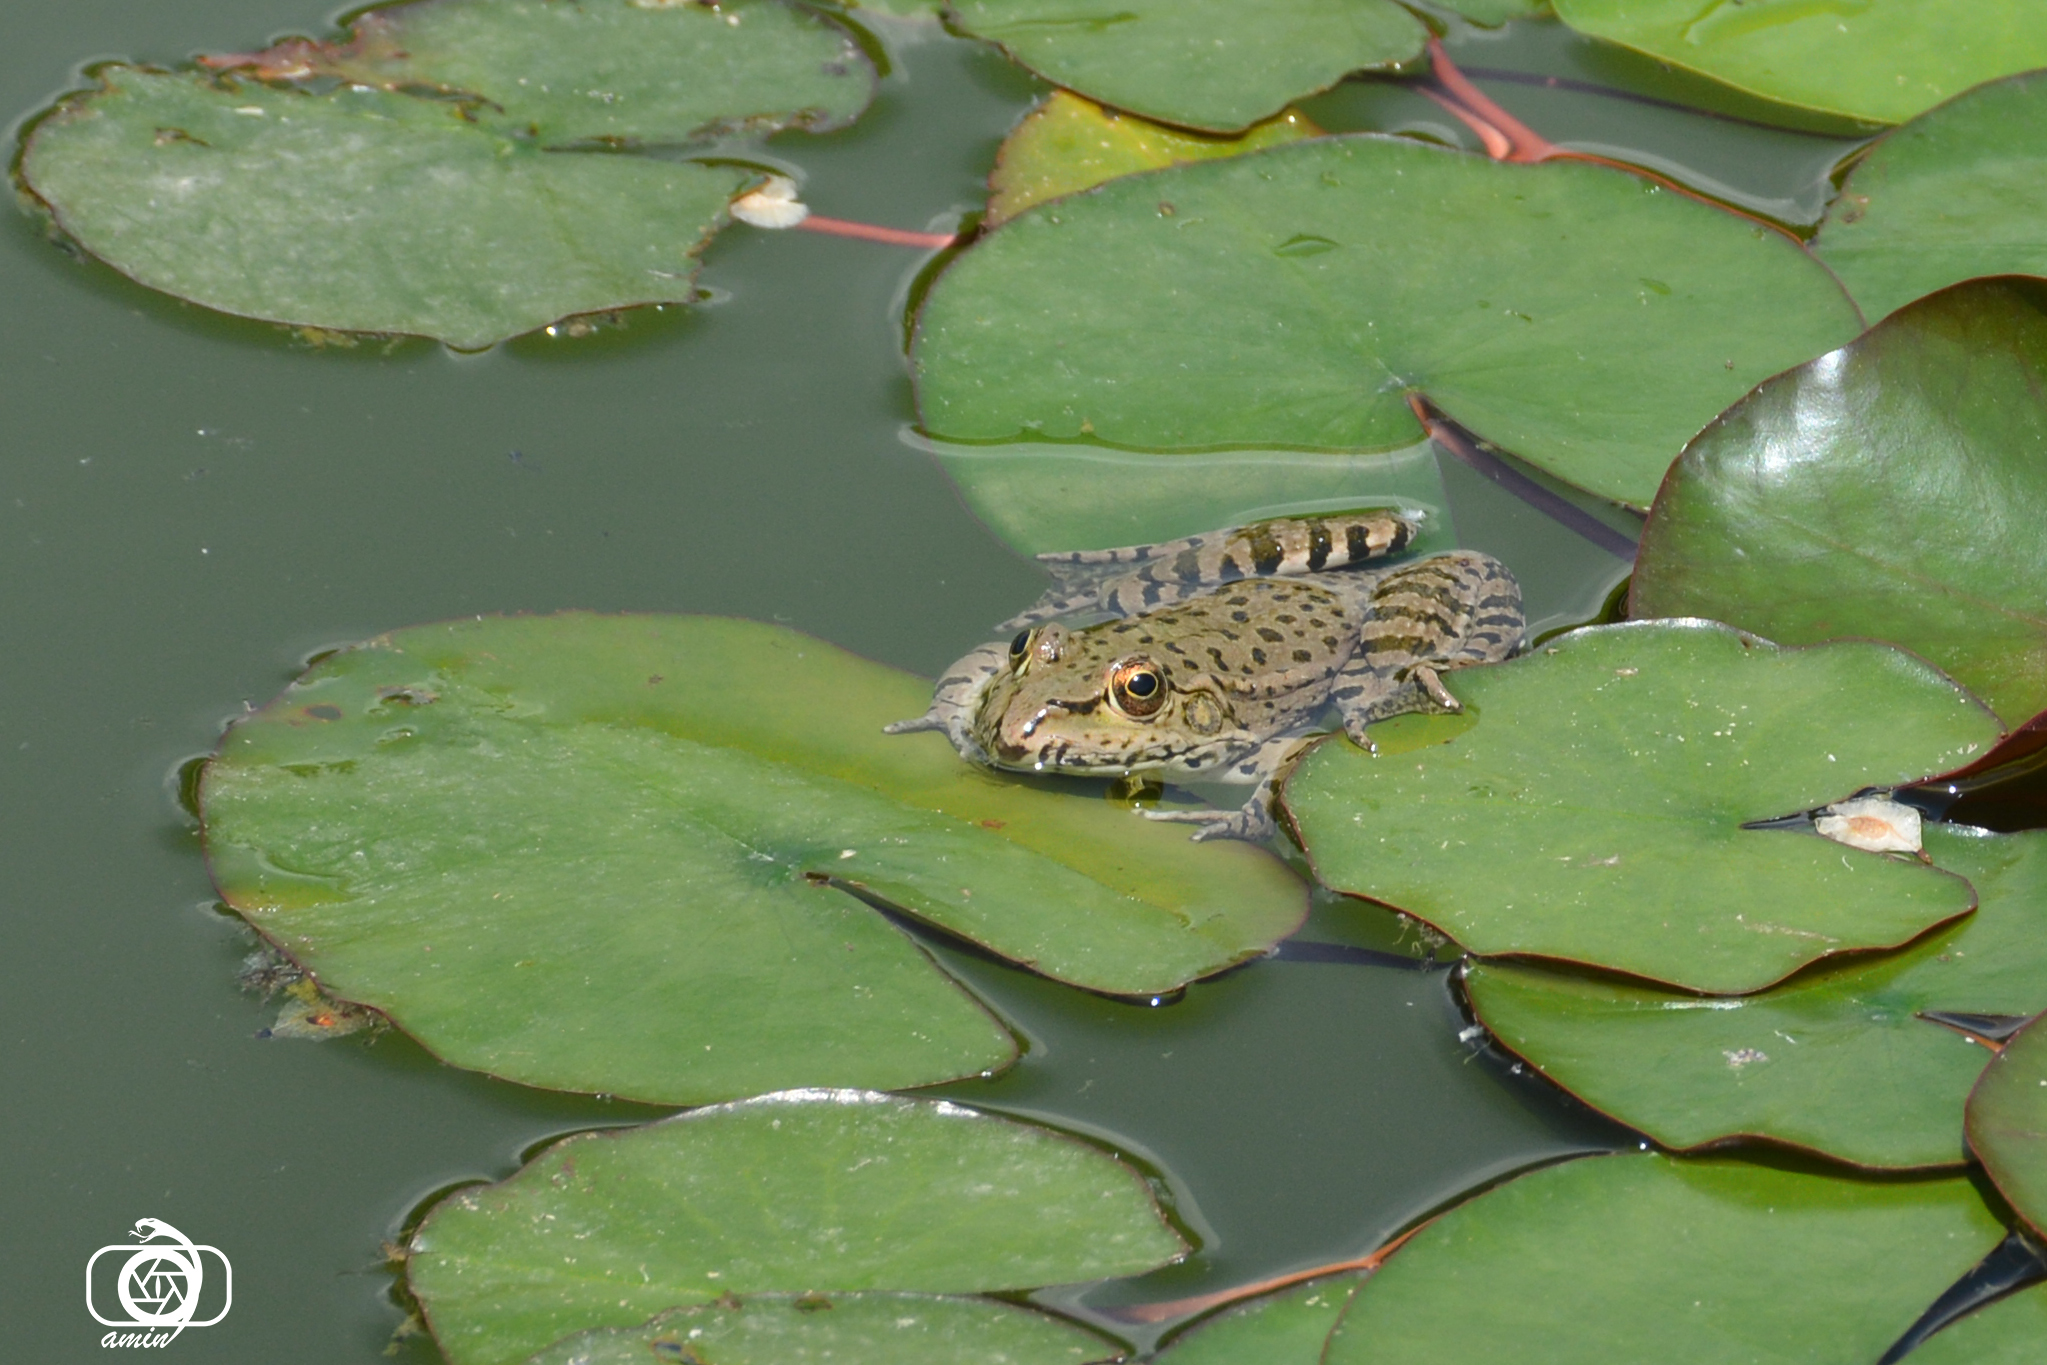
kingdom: Animalia
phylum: Chordata
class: Amphibia
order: Anura
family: Ranidae
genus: Pelophylax
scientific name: Pelophylax ridibundus
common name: Marsh frog
